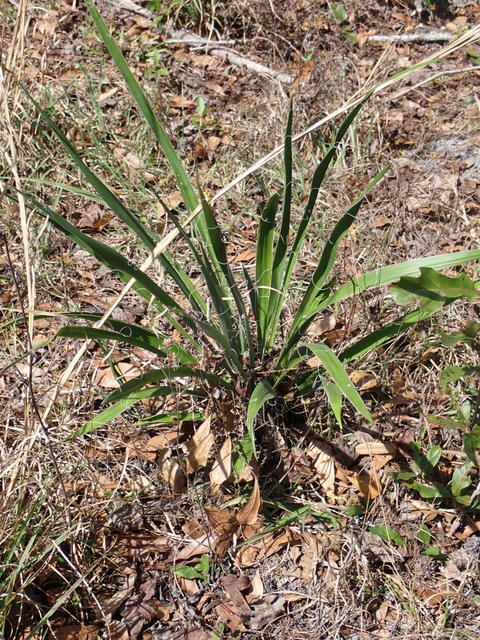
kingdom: Plantae
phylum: Tracheophyta
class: Liliopsida
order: Asparagales
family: Asparagaceae
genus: Yucca
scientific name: Yucca filamentosa
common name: Adam's-needle
